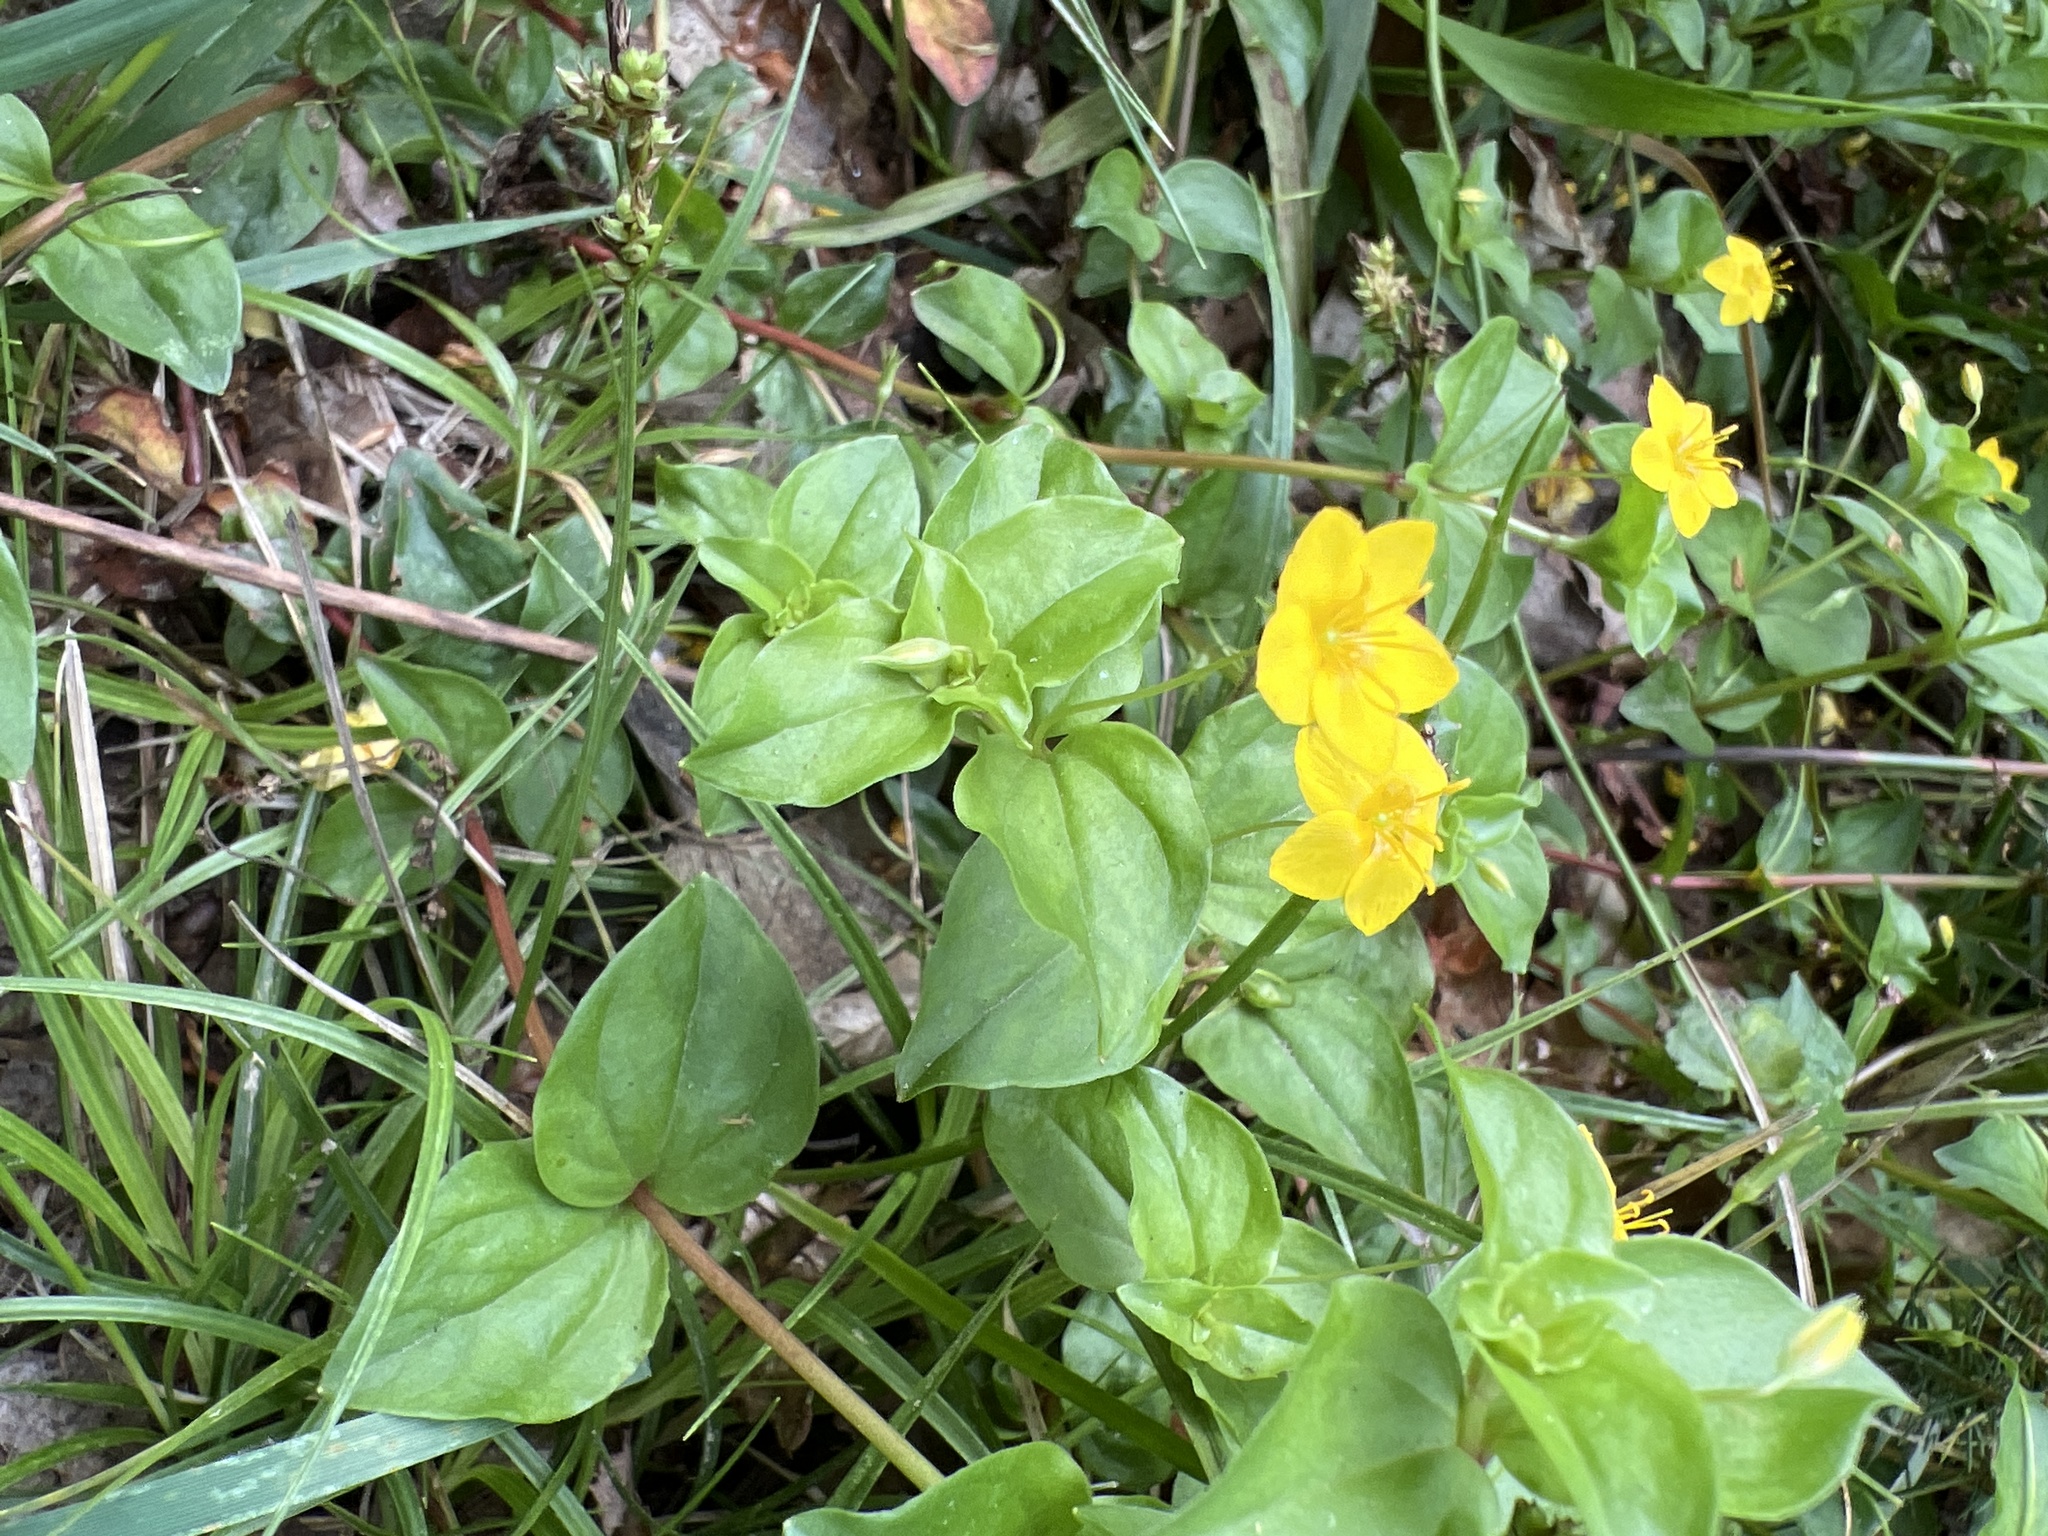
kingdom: Plantae
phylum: Tracheophyta
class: Magnoliopsida
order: Ericales
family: Primulaceae
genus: Lysimachia
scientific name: Lysimachia nemorum
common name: Yellow pimpernel
